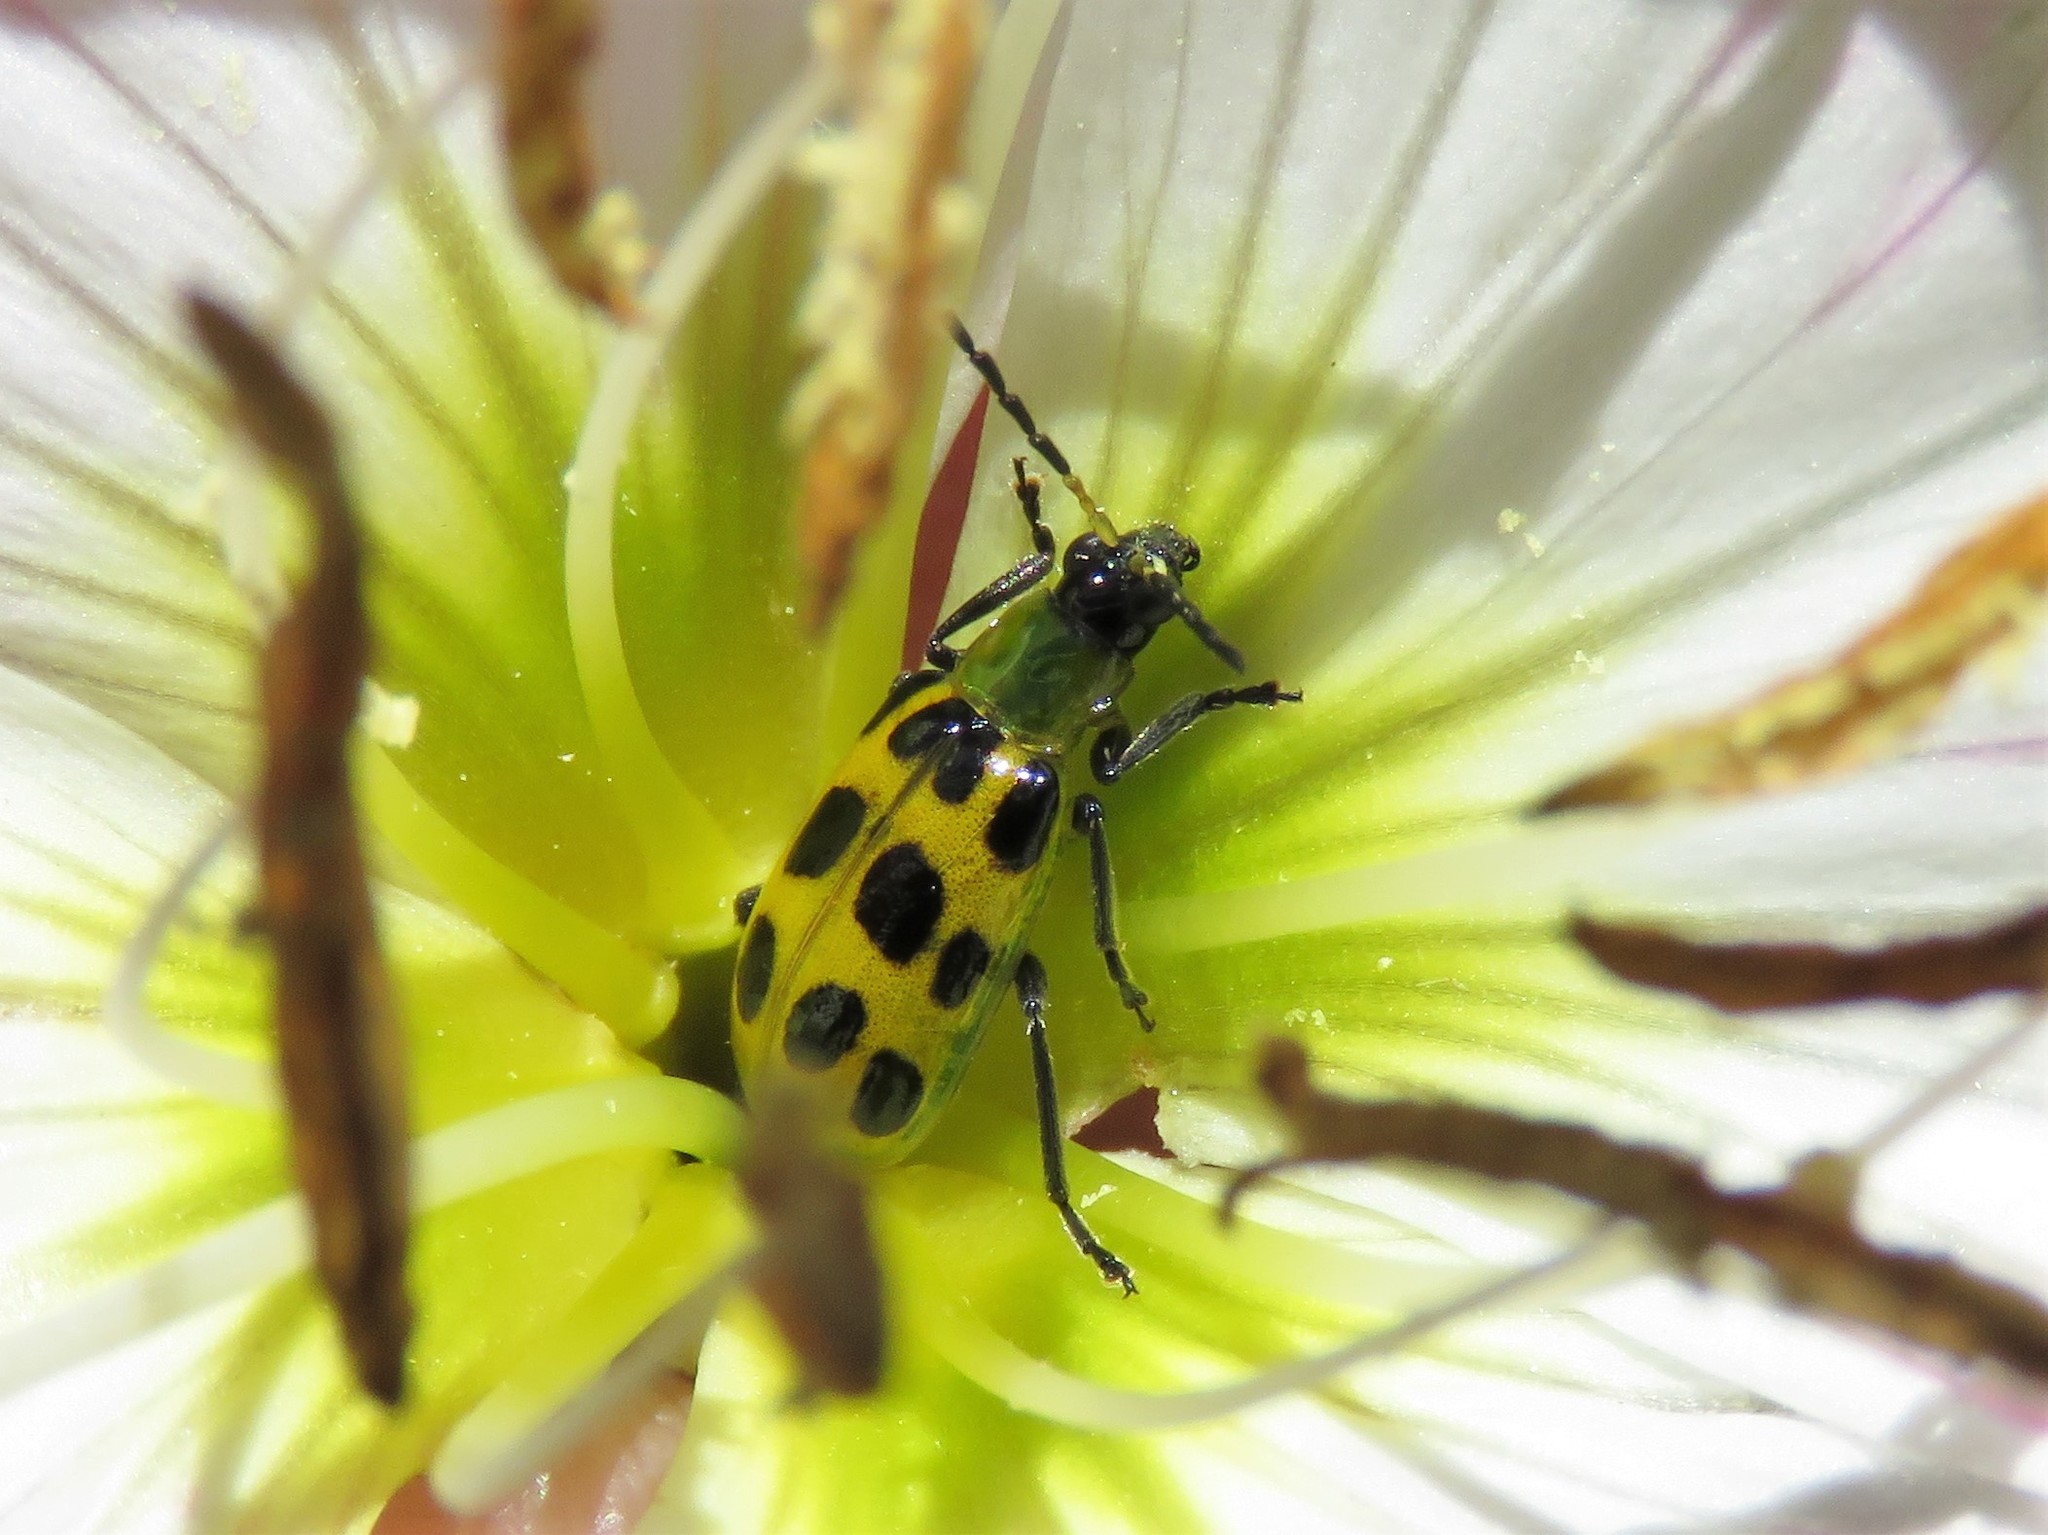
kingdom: Animalia
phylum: Arthropoda
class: Insecta
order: Coleoptera
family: Chrysomelidae
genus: Diabrotica
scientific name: Diabrotica undecimpunctata
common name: Spotted cucumber beetle
